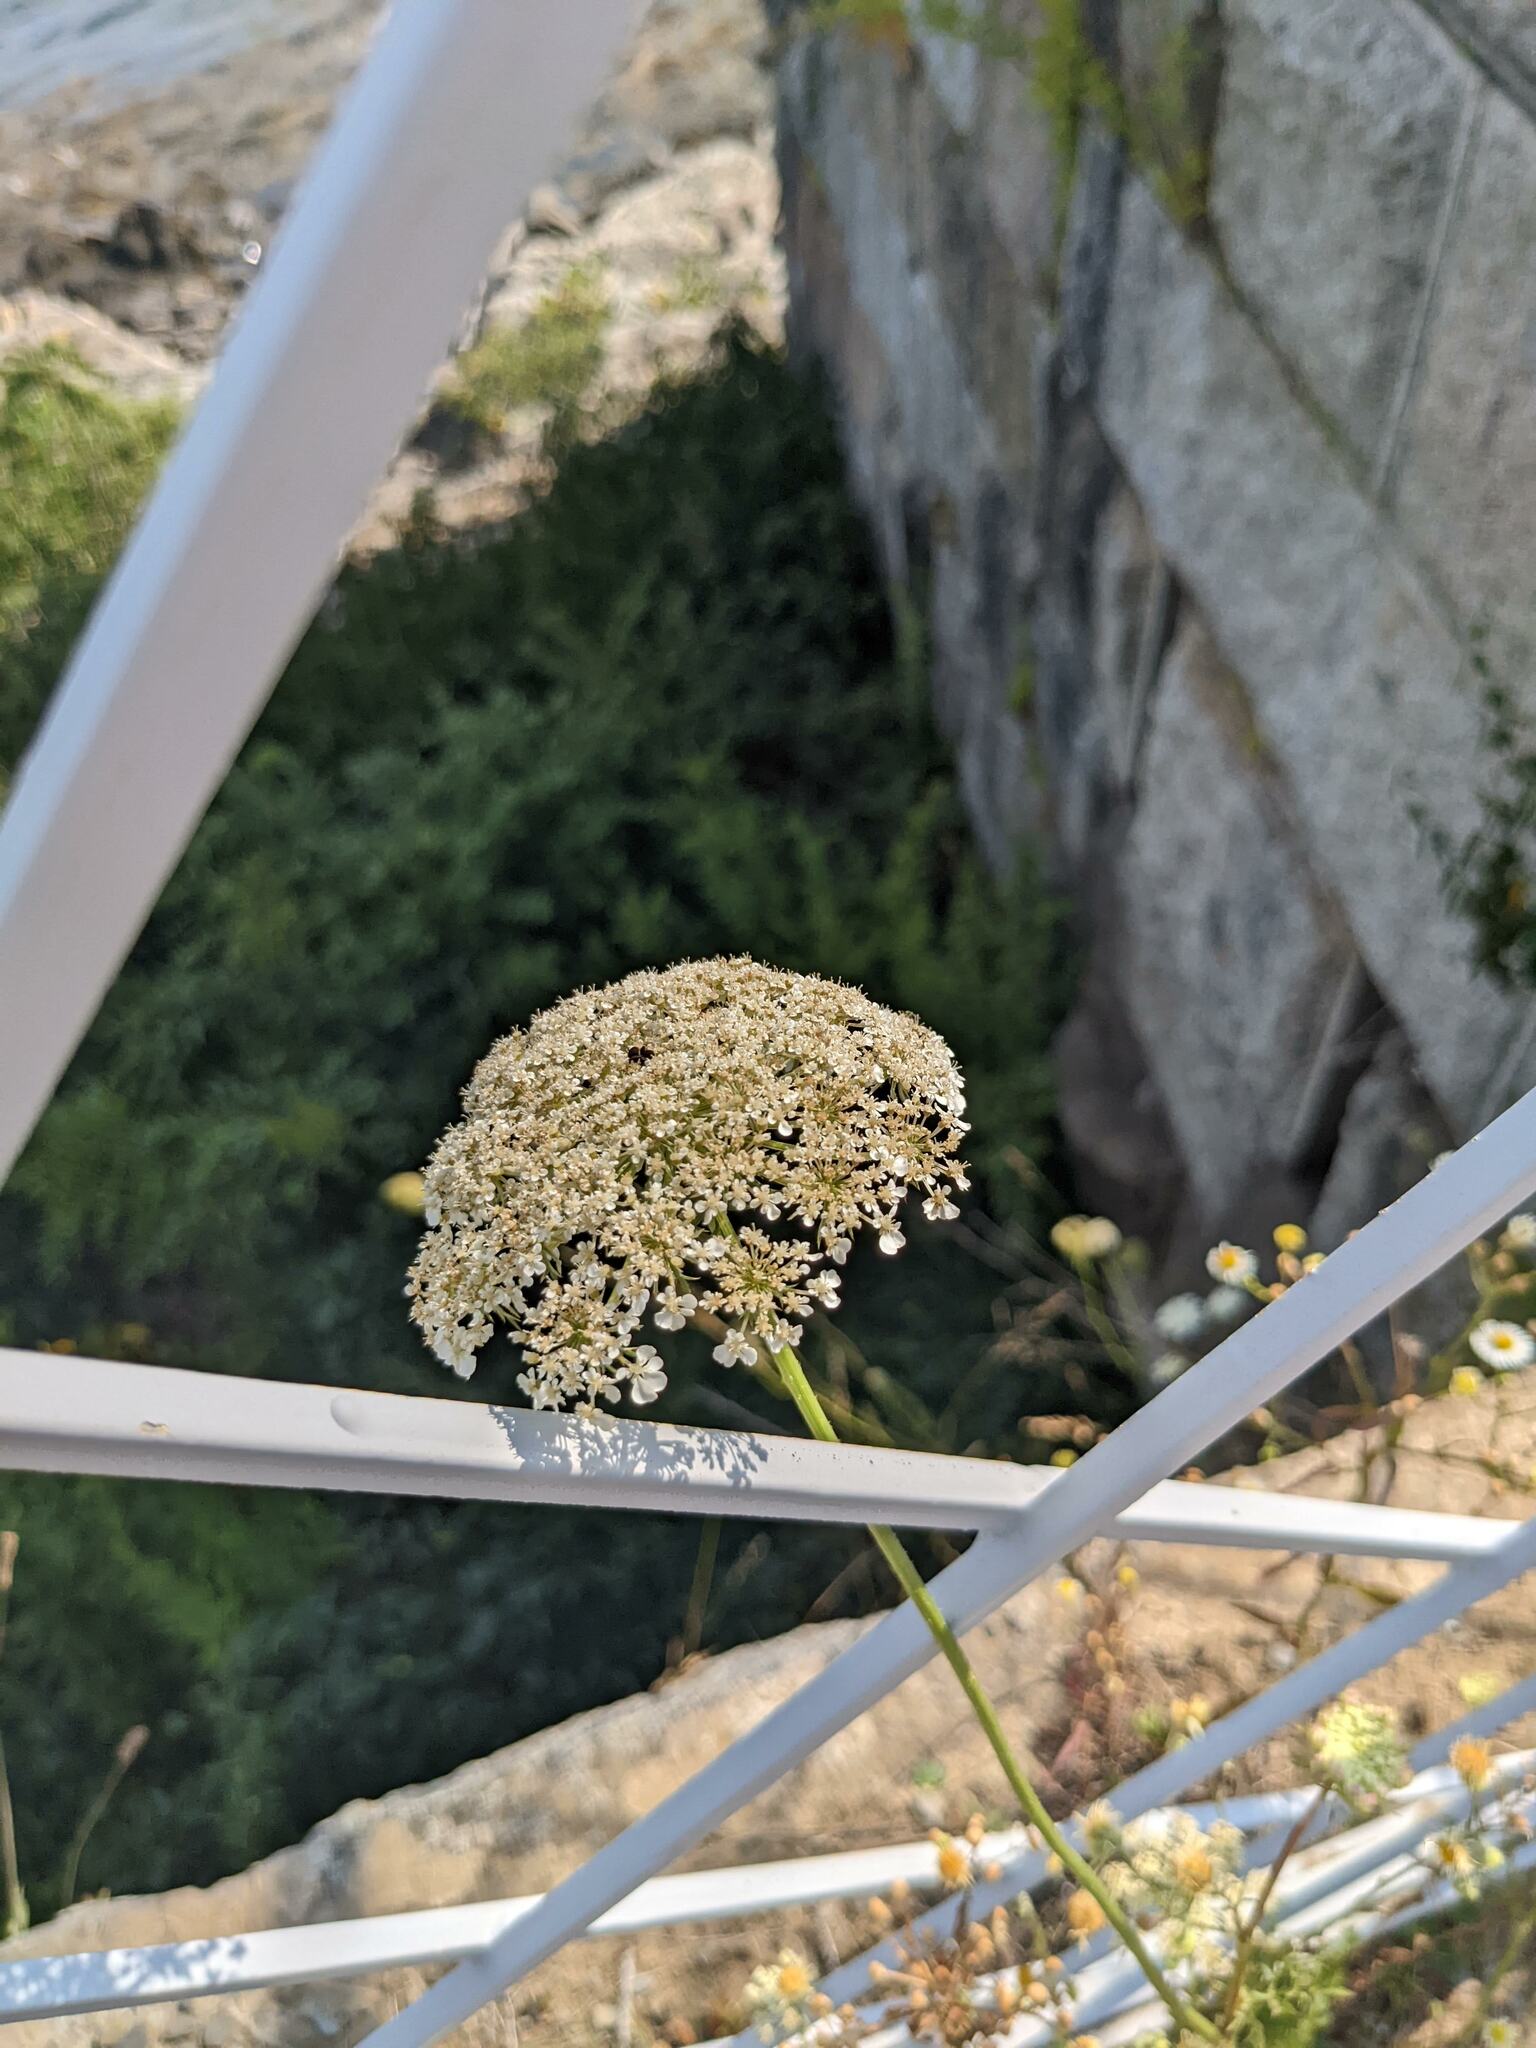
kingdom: Plantae
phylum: Tracheophyta
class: Magnoliopsida
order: Apiales
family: Apiaceae
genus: Daucus
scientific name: Daucus carota
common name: Wild carrot
